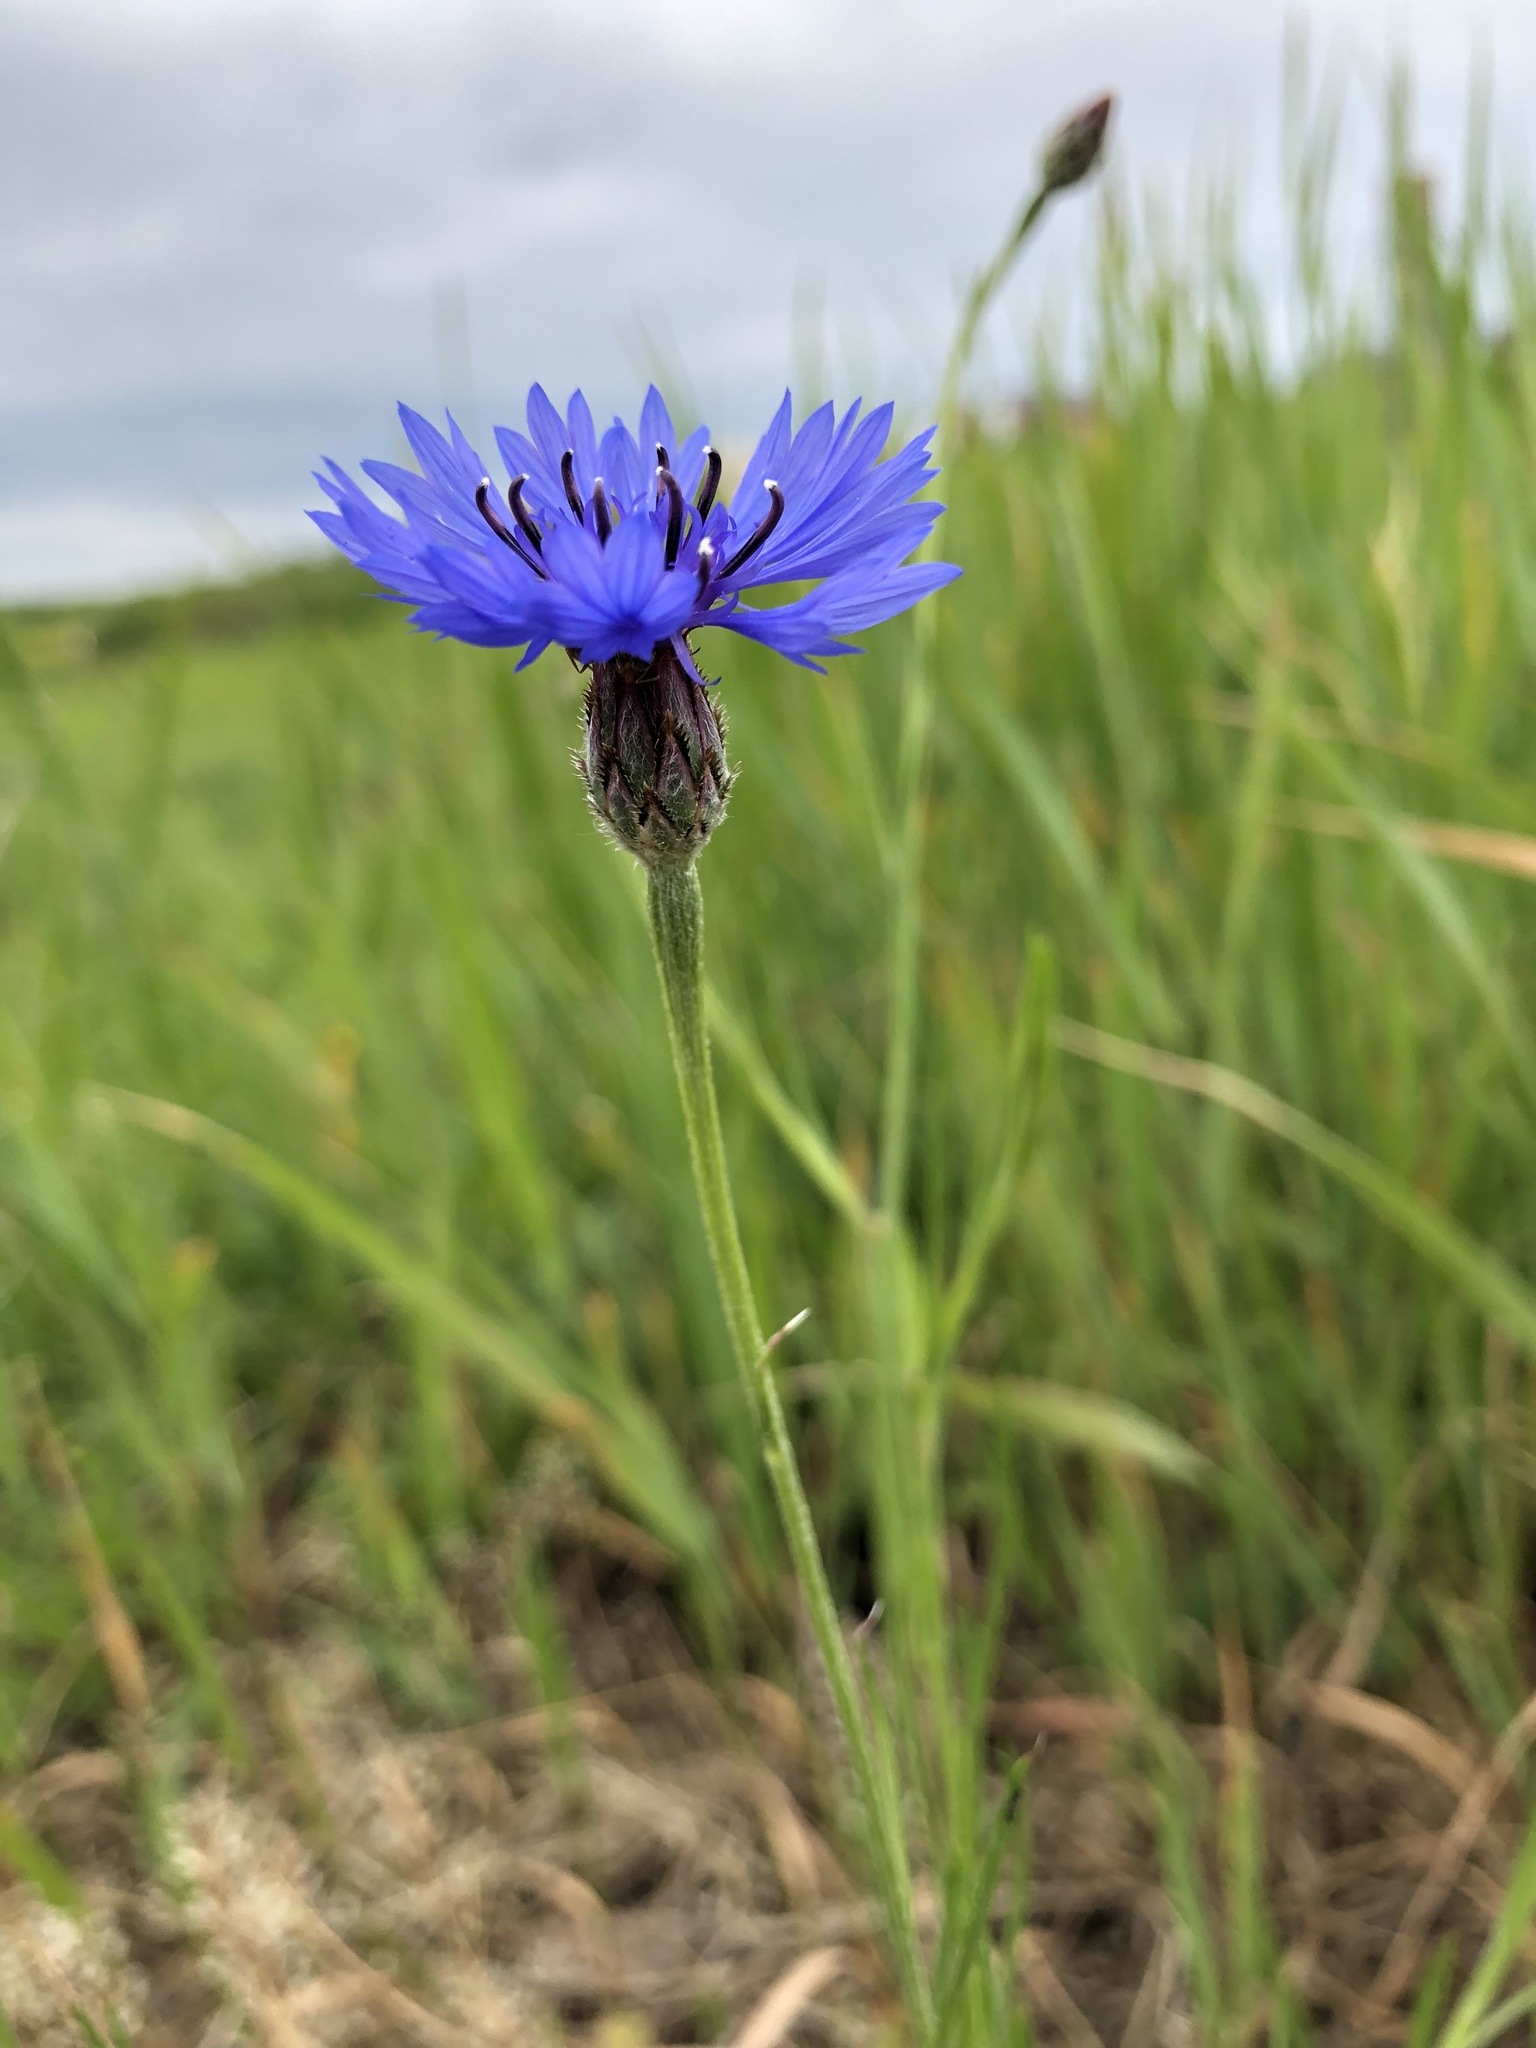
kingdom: Plantae
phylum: Tracheophyta
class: Magnoliopsida
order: Asterales
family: Asteraceae
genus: Centaurea
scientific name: Centaurea cyanus
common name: Cornflower
